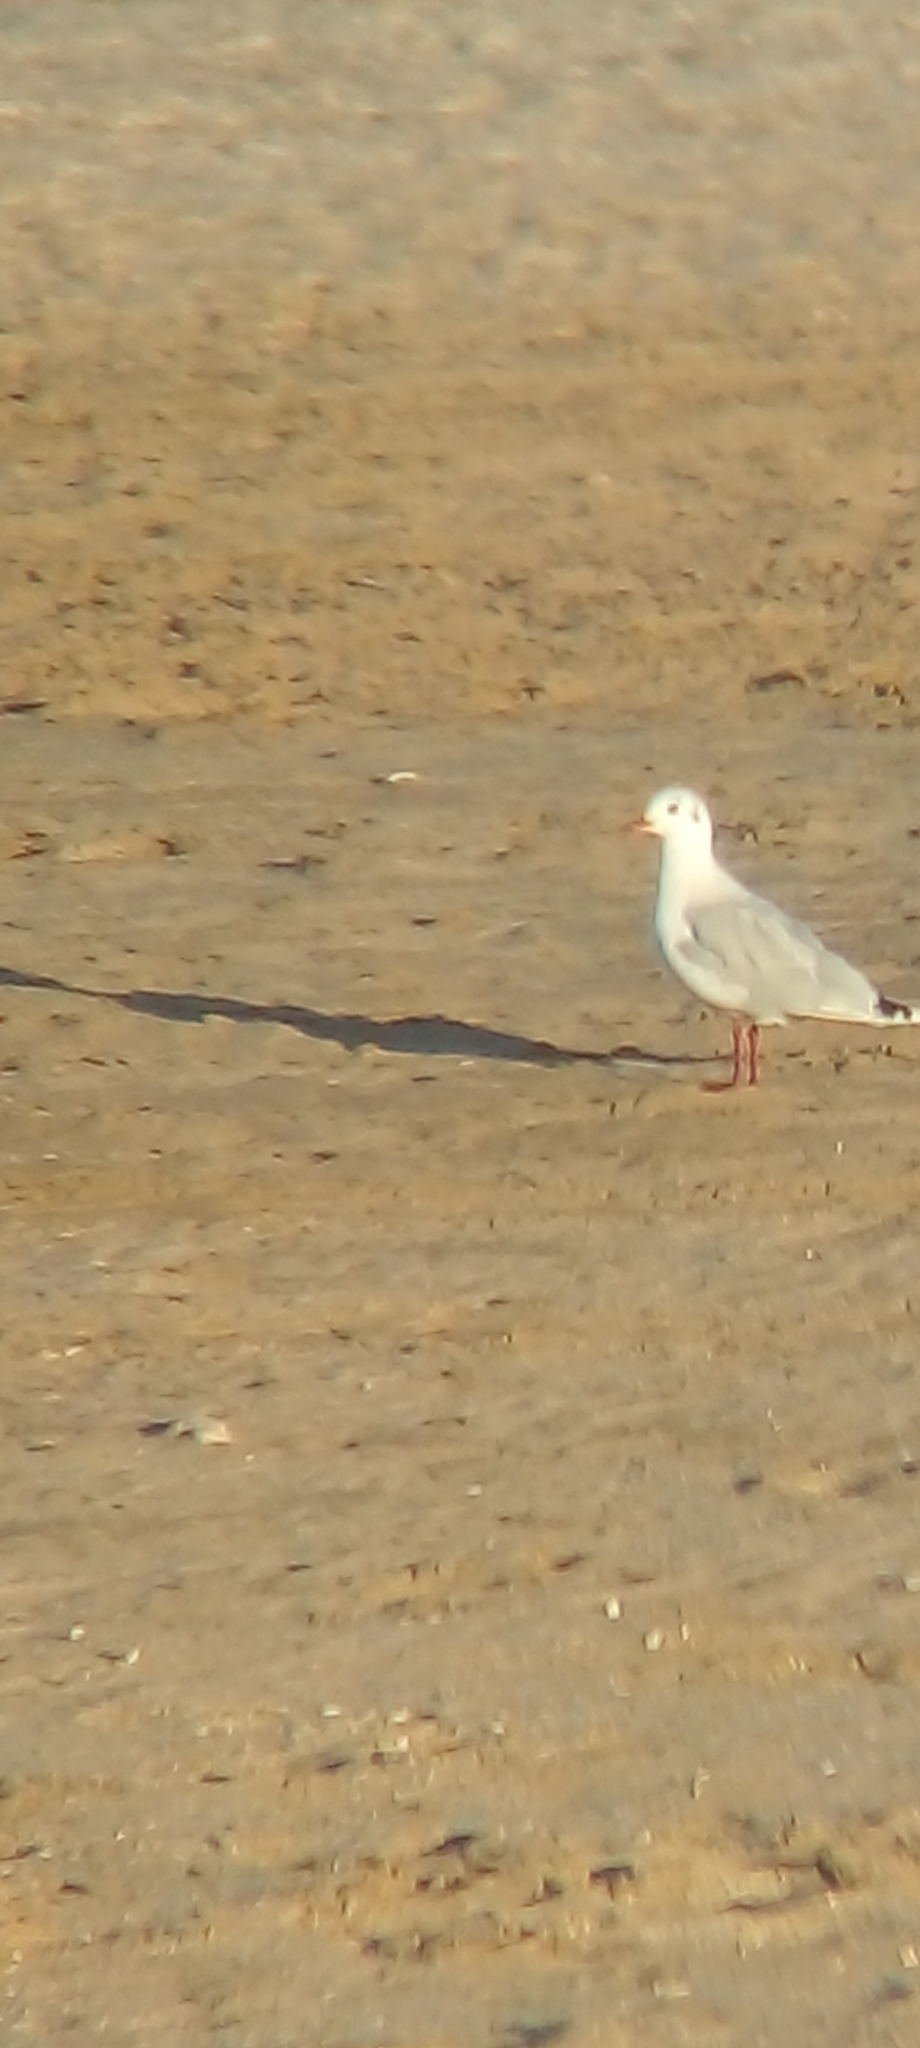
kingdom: Animalia
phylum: Chordata
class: Aves
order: Charadriiformes
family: Laridae
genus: Chroicocephalus
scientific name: Chroicocephalus maculipennis
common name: Brown-hooded gull
